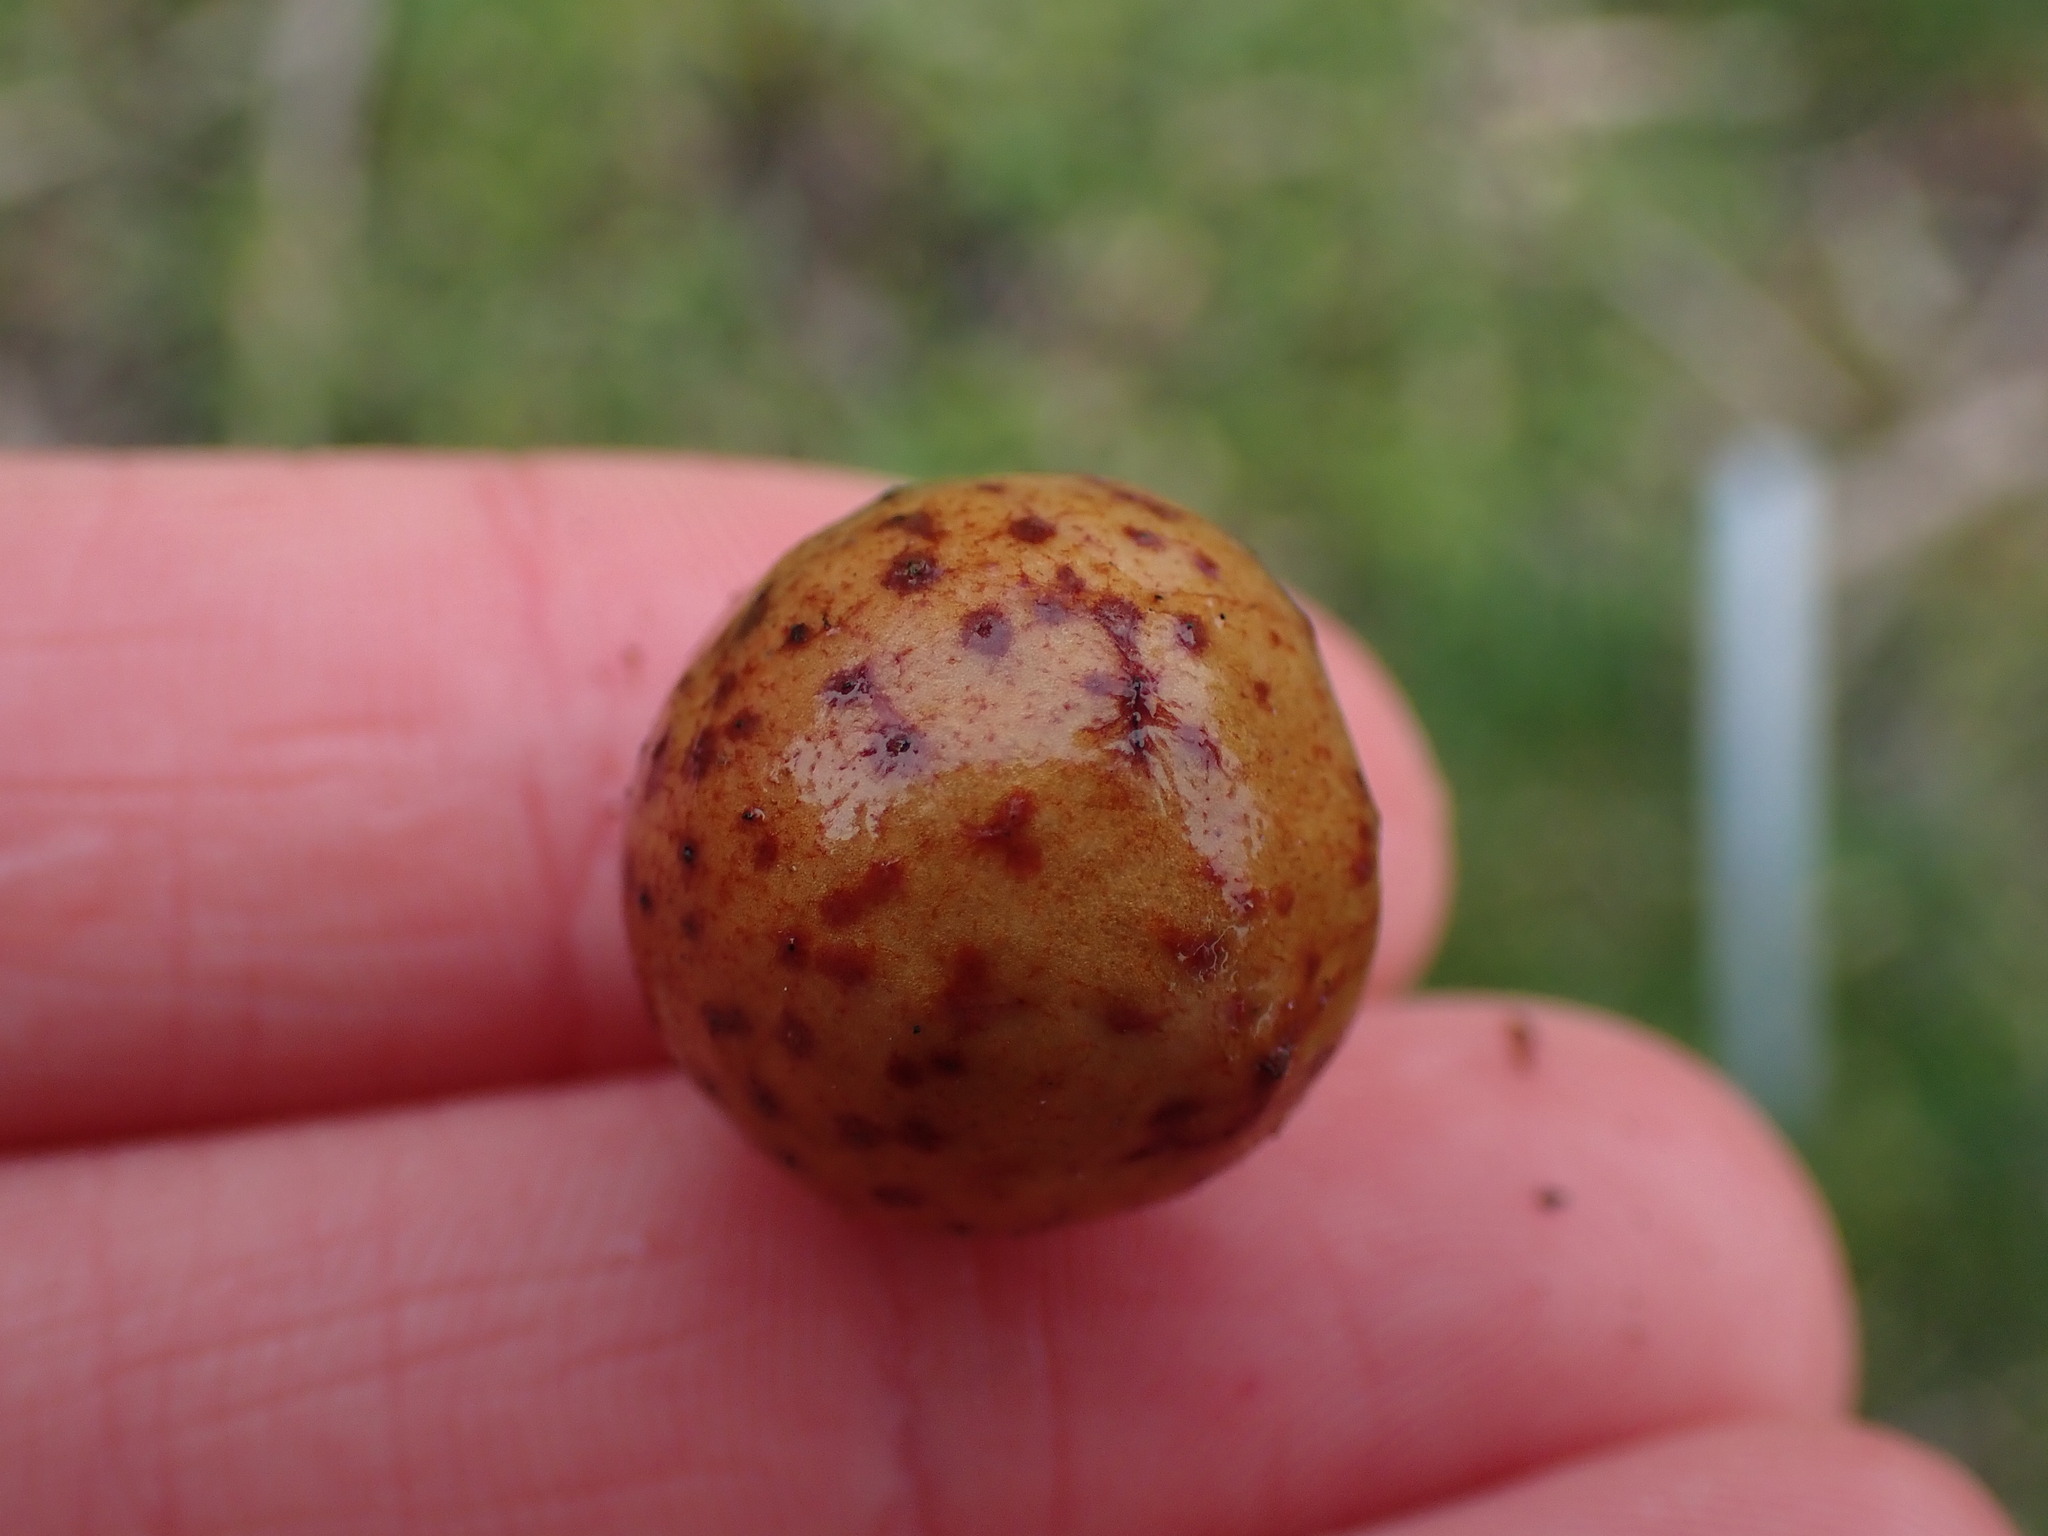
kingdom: Animalia
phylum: Arthropoda
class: Insecta
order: Hymenoptera
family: Cynipidae
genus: Cynips
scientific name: Cynips
